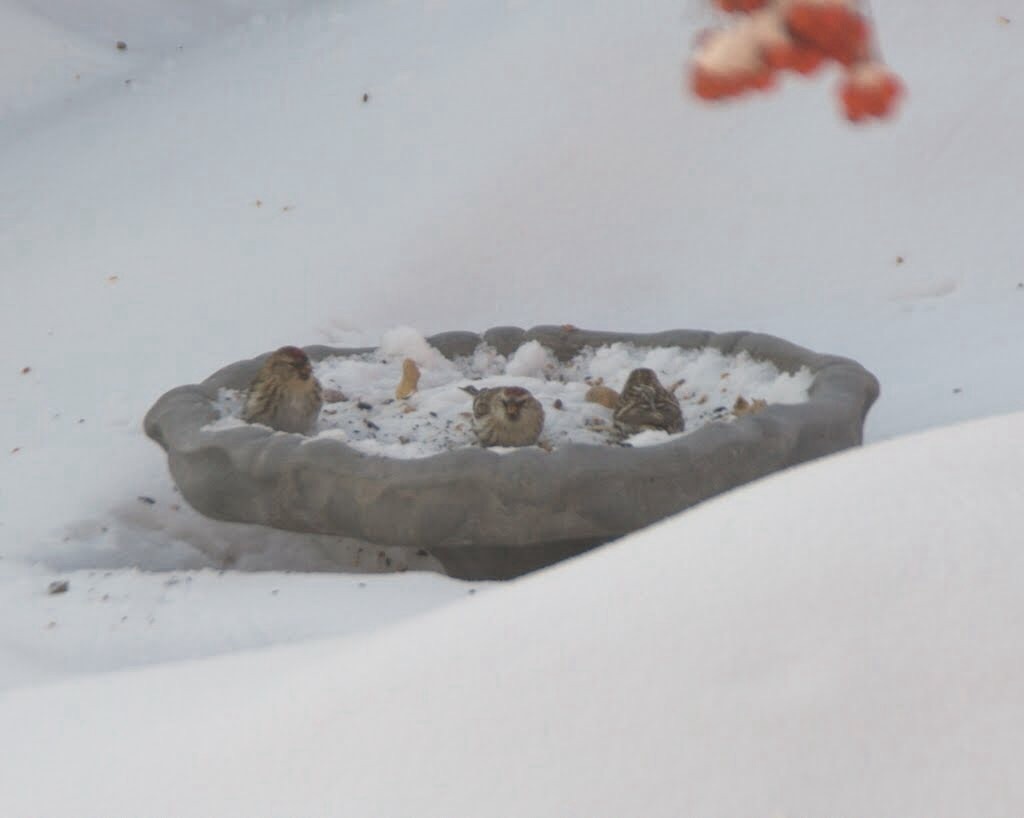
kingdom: Animalia
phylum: Chordata
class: Aves
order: Passeriformes
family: Fringillidae
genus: Acanthis
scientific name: Acanthis flammea
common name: Common redpoll
